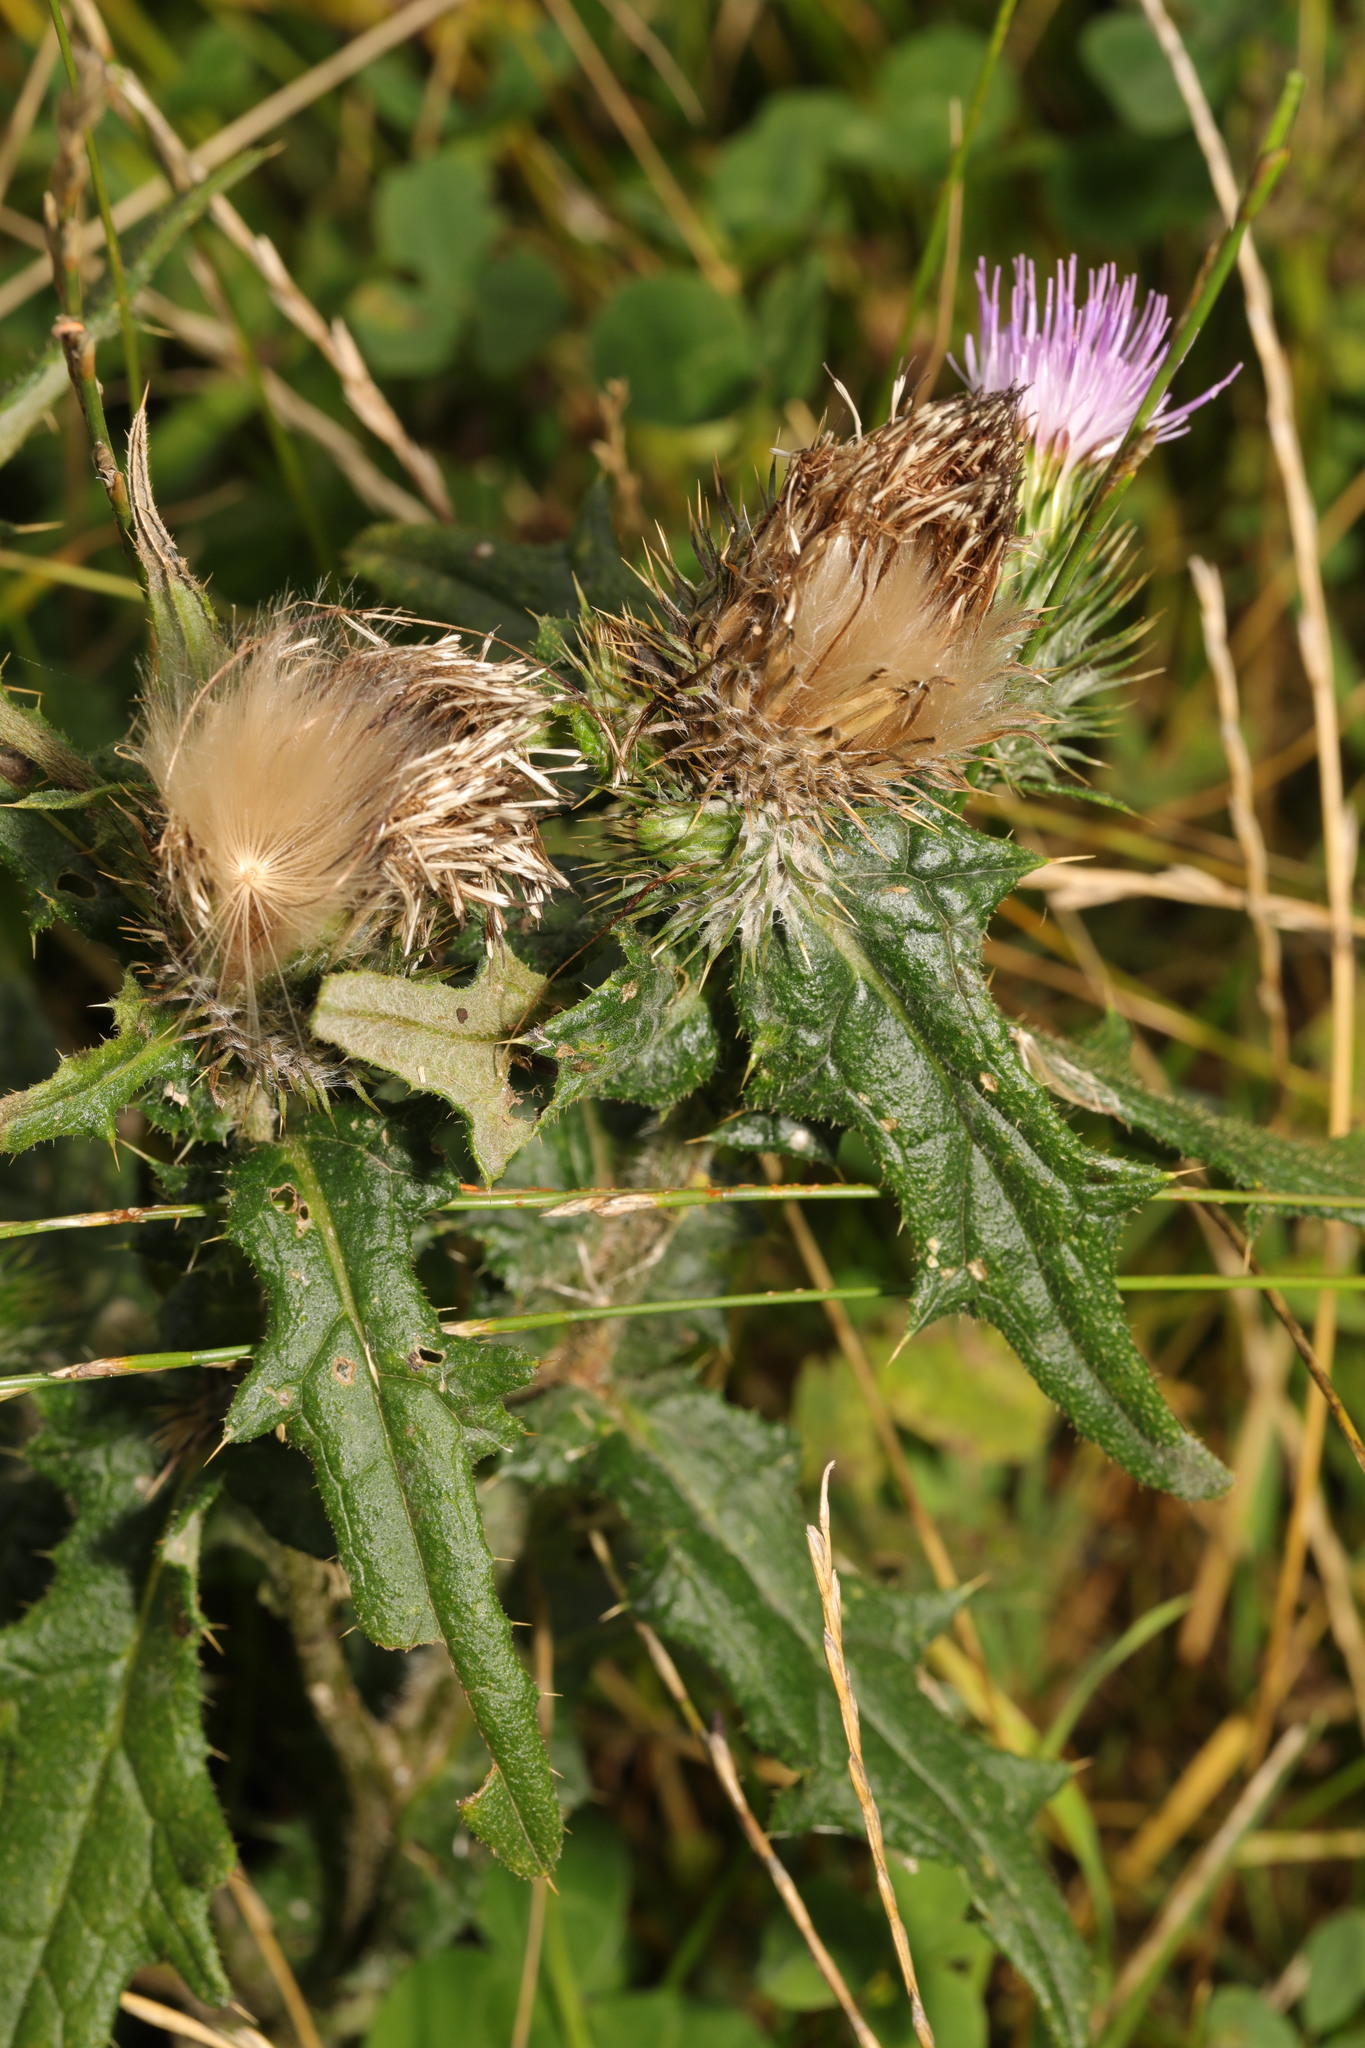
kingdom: Plantae
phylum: Tracheophyta
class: Magnoliopsida
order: Asterales
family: Asteraceae
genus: Cirsium
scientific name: Cirsium vulgare
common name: Bull thistle
